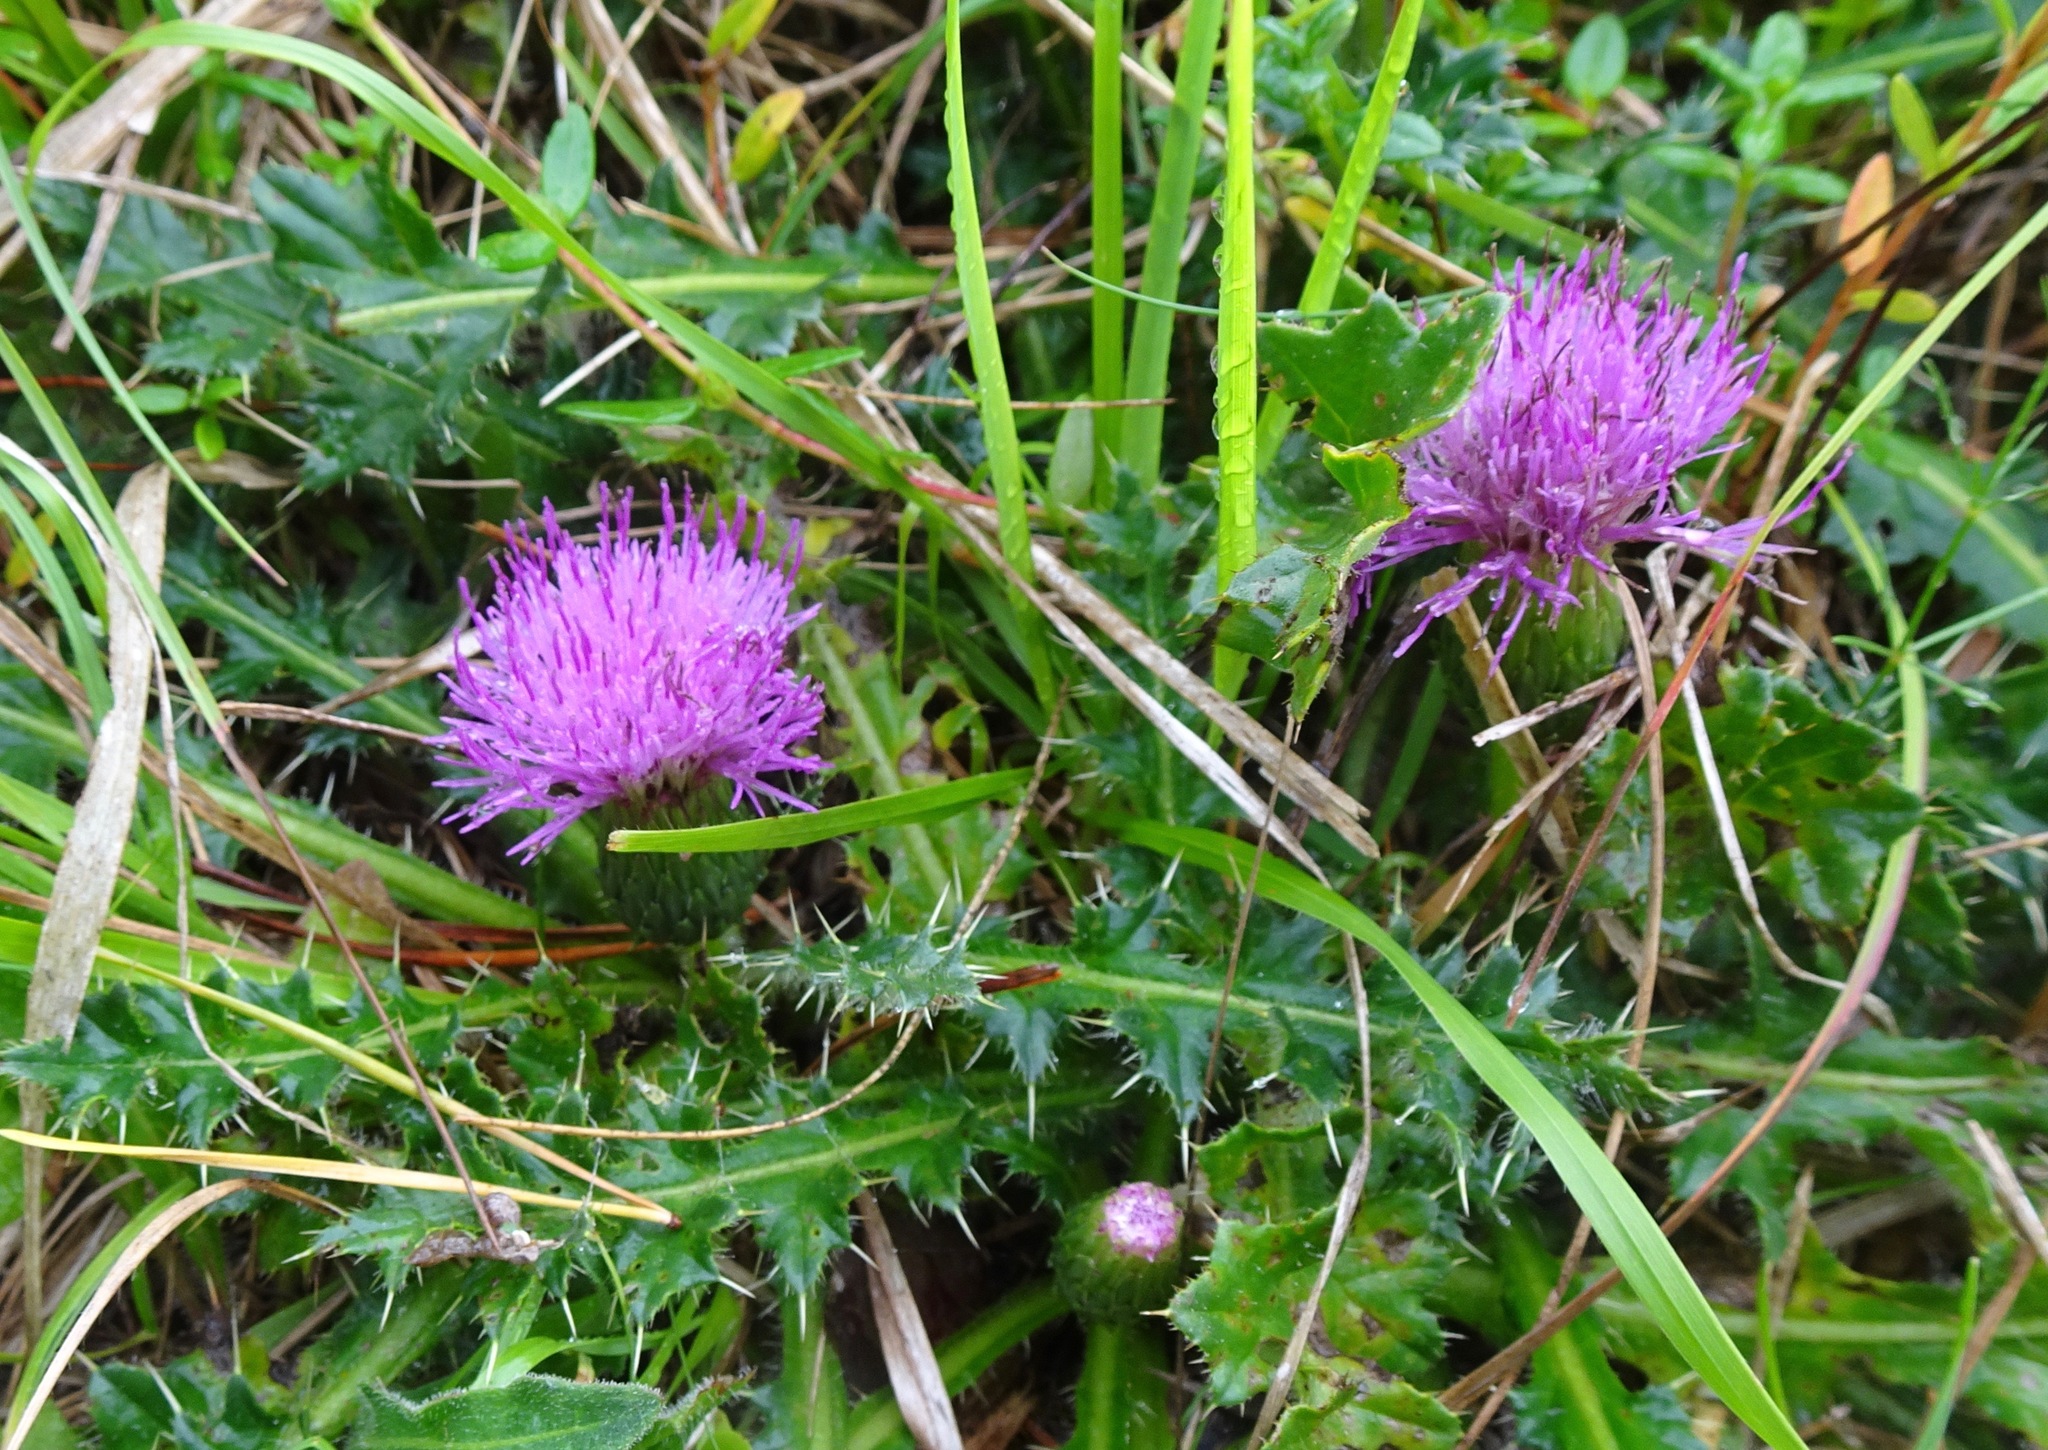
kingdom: Plantae
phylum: Tracheophyta
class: Magnoliopsida
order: Asterales
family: Asteraceae
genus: Cirsium
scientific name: Cirsium acaulon
